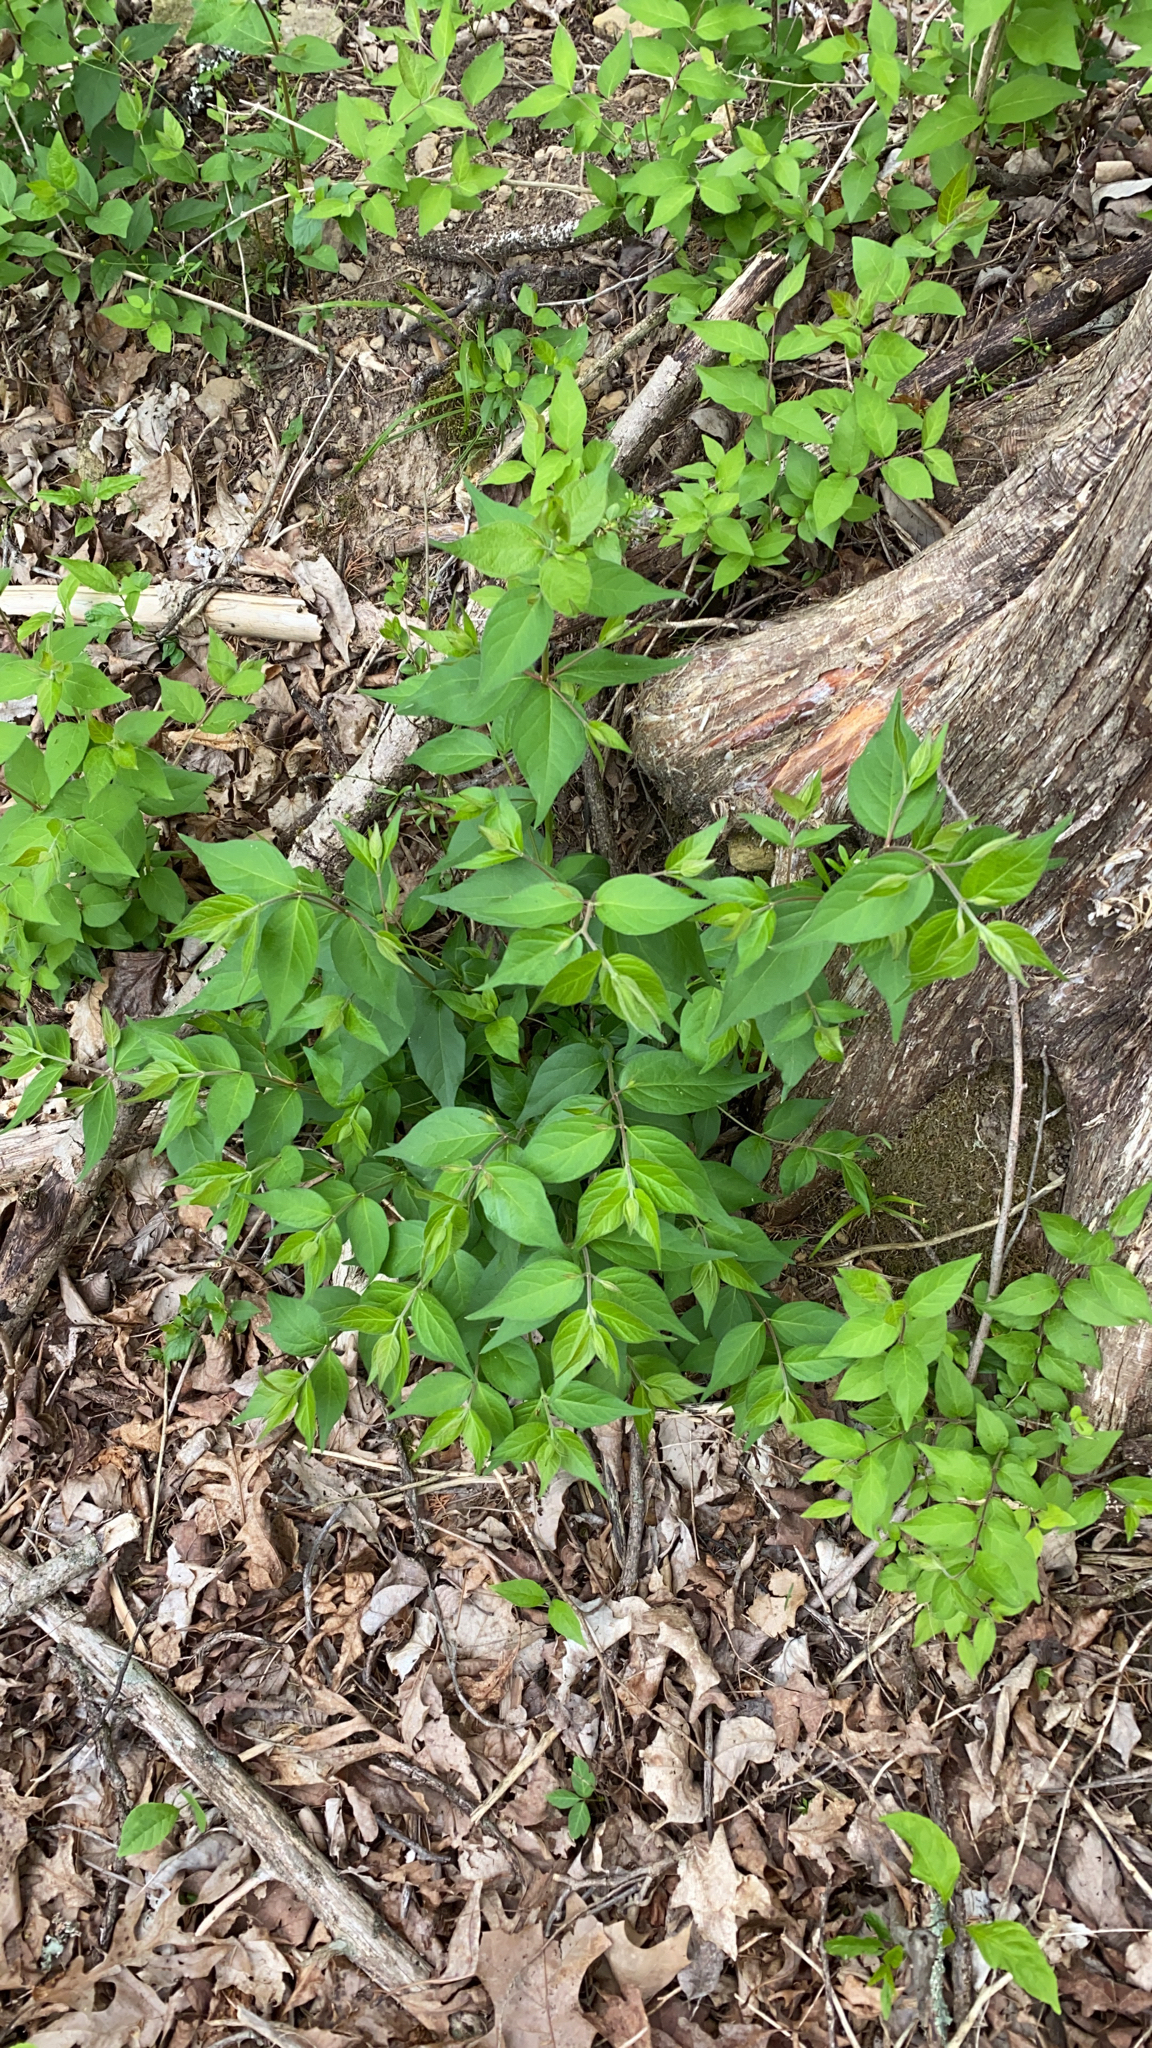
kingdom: Plantae
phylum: Tracheophyta
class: Magnoliopsida
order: Dipsacales
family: Caprifoliaceae
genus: Lonicera
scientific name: Lonicera maackii
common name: Amur honeysuckle
